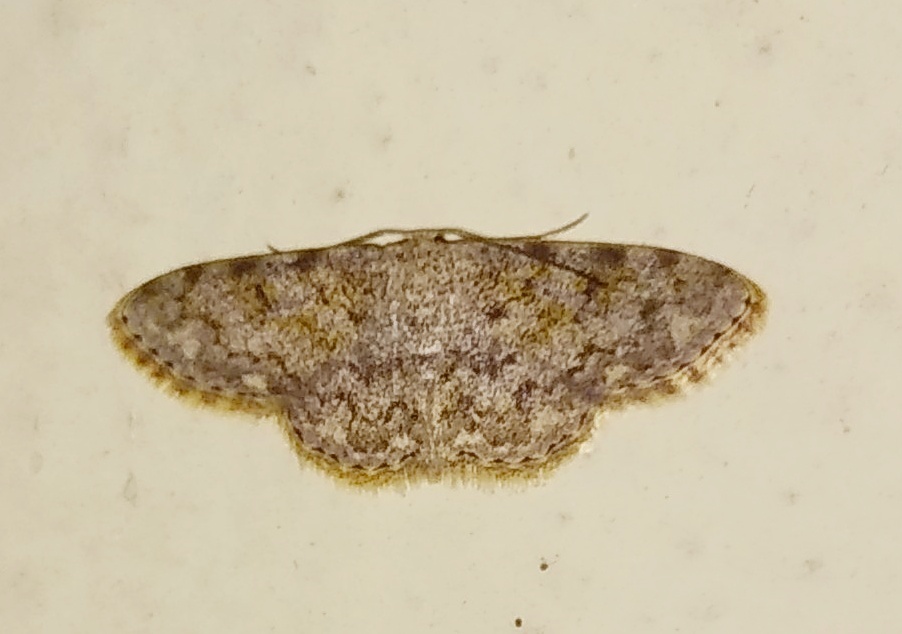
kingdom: Animalia
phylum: Arthropoda
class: Insecta
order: Lepidoptera
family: Geometridae
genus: Scopula
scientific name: Scopula fibulata
